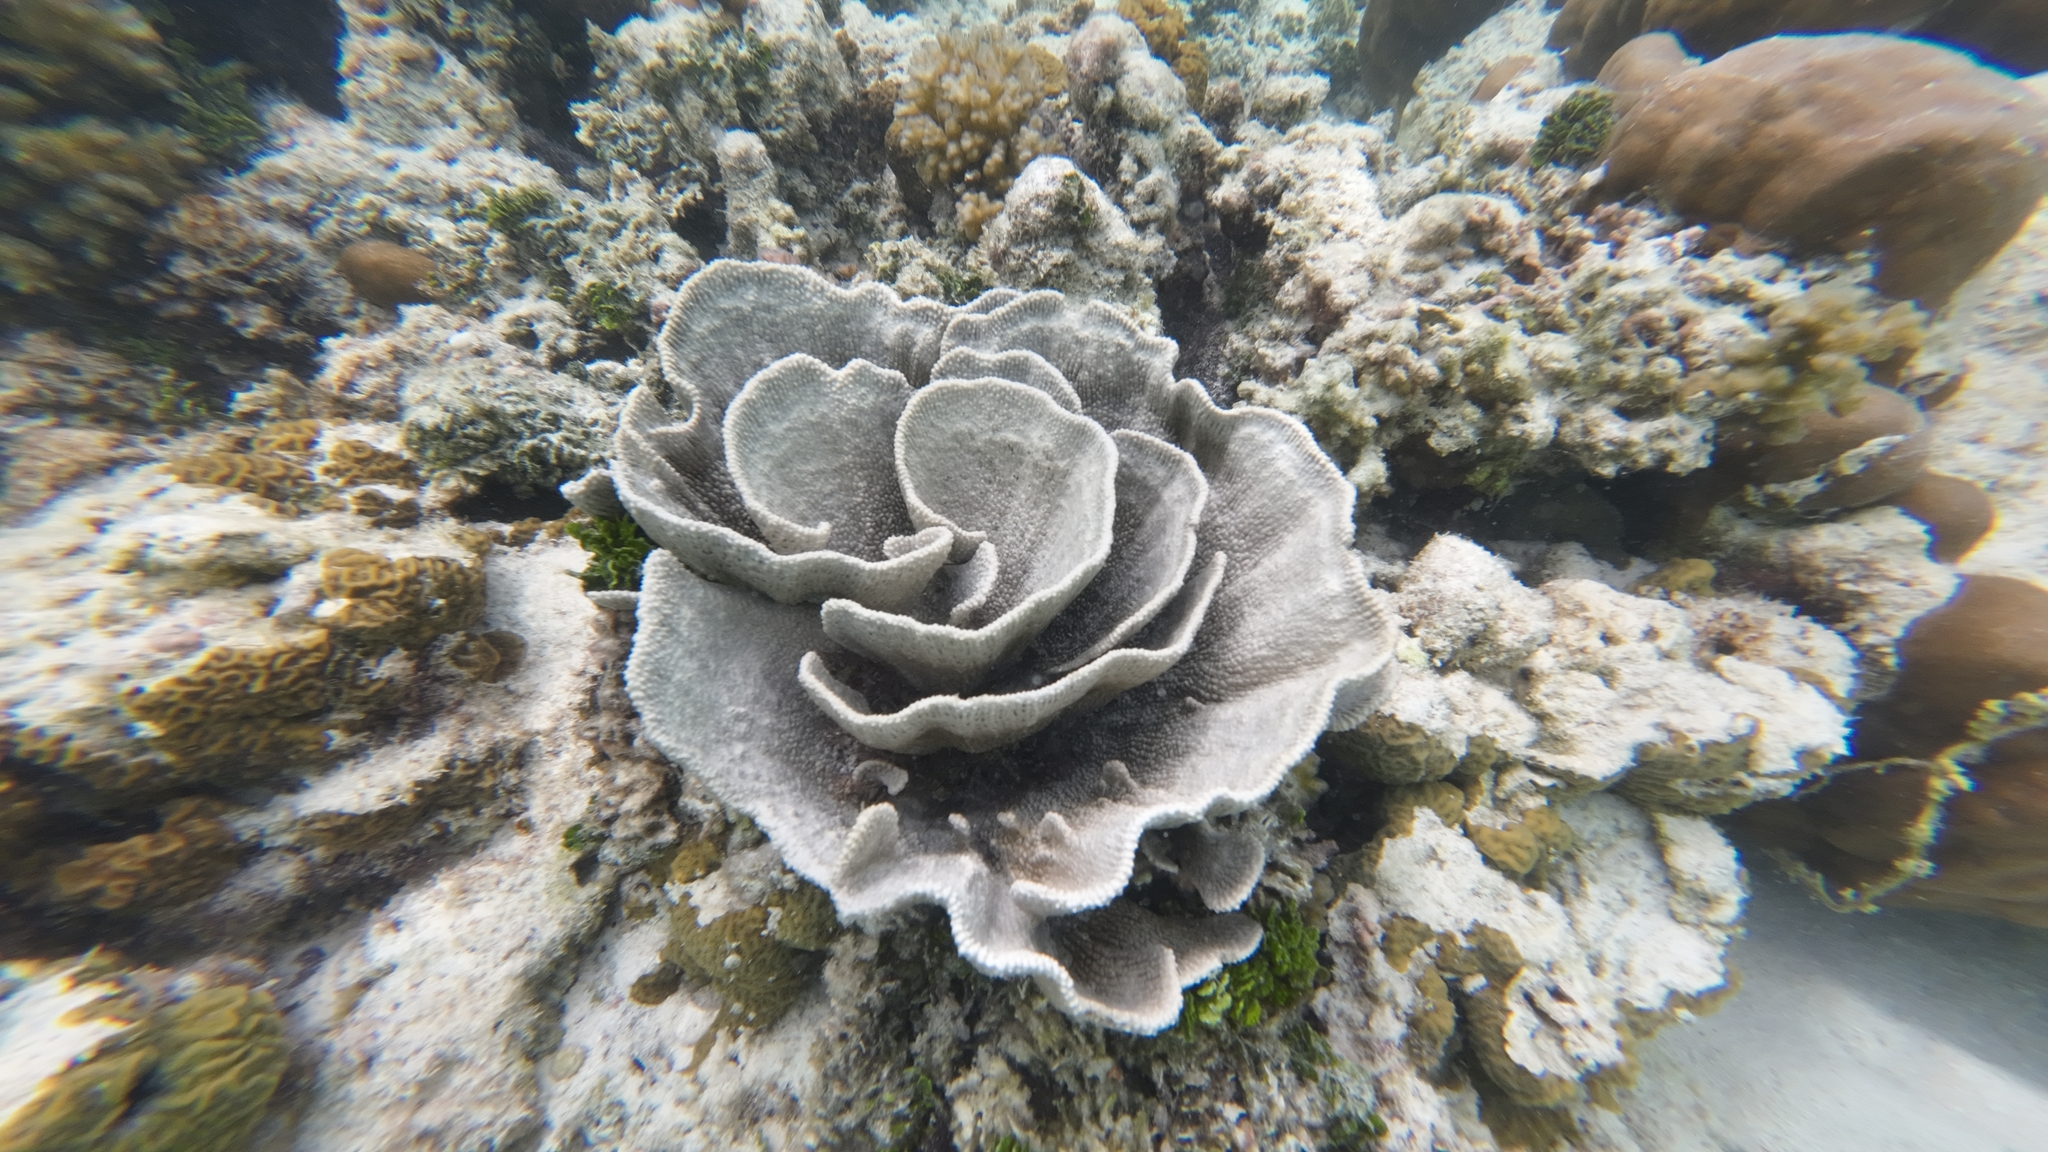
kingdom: Animalia
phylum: Porifera
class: Demospongiae
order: Dictyoceratida
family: Thorectidae
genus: Phyllospongia
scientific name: Phyllospongia foliascens
